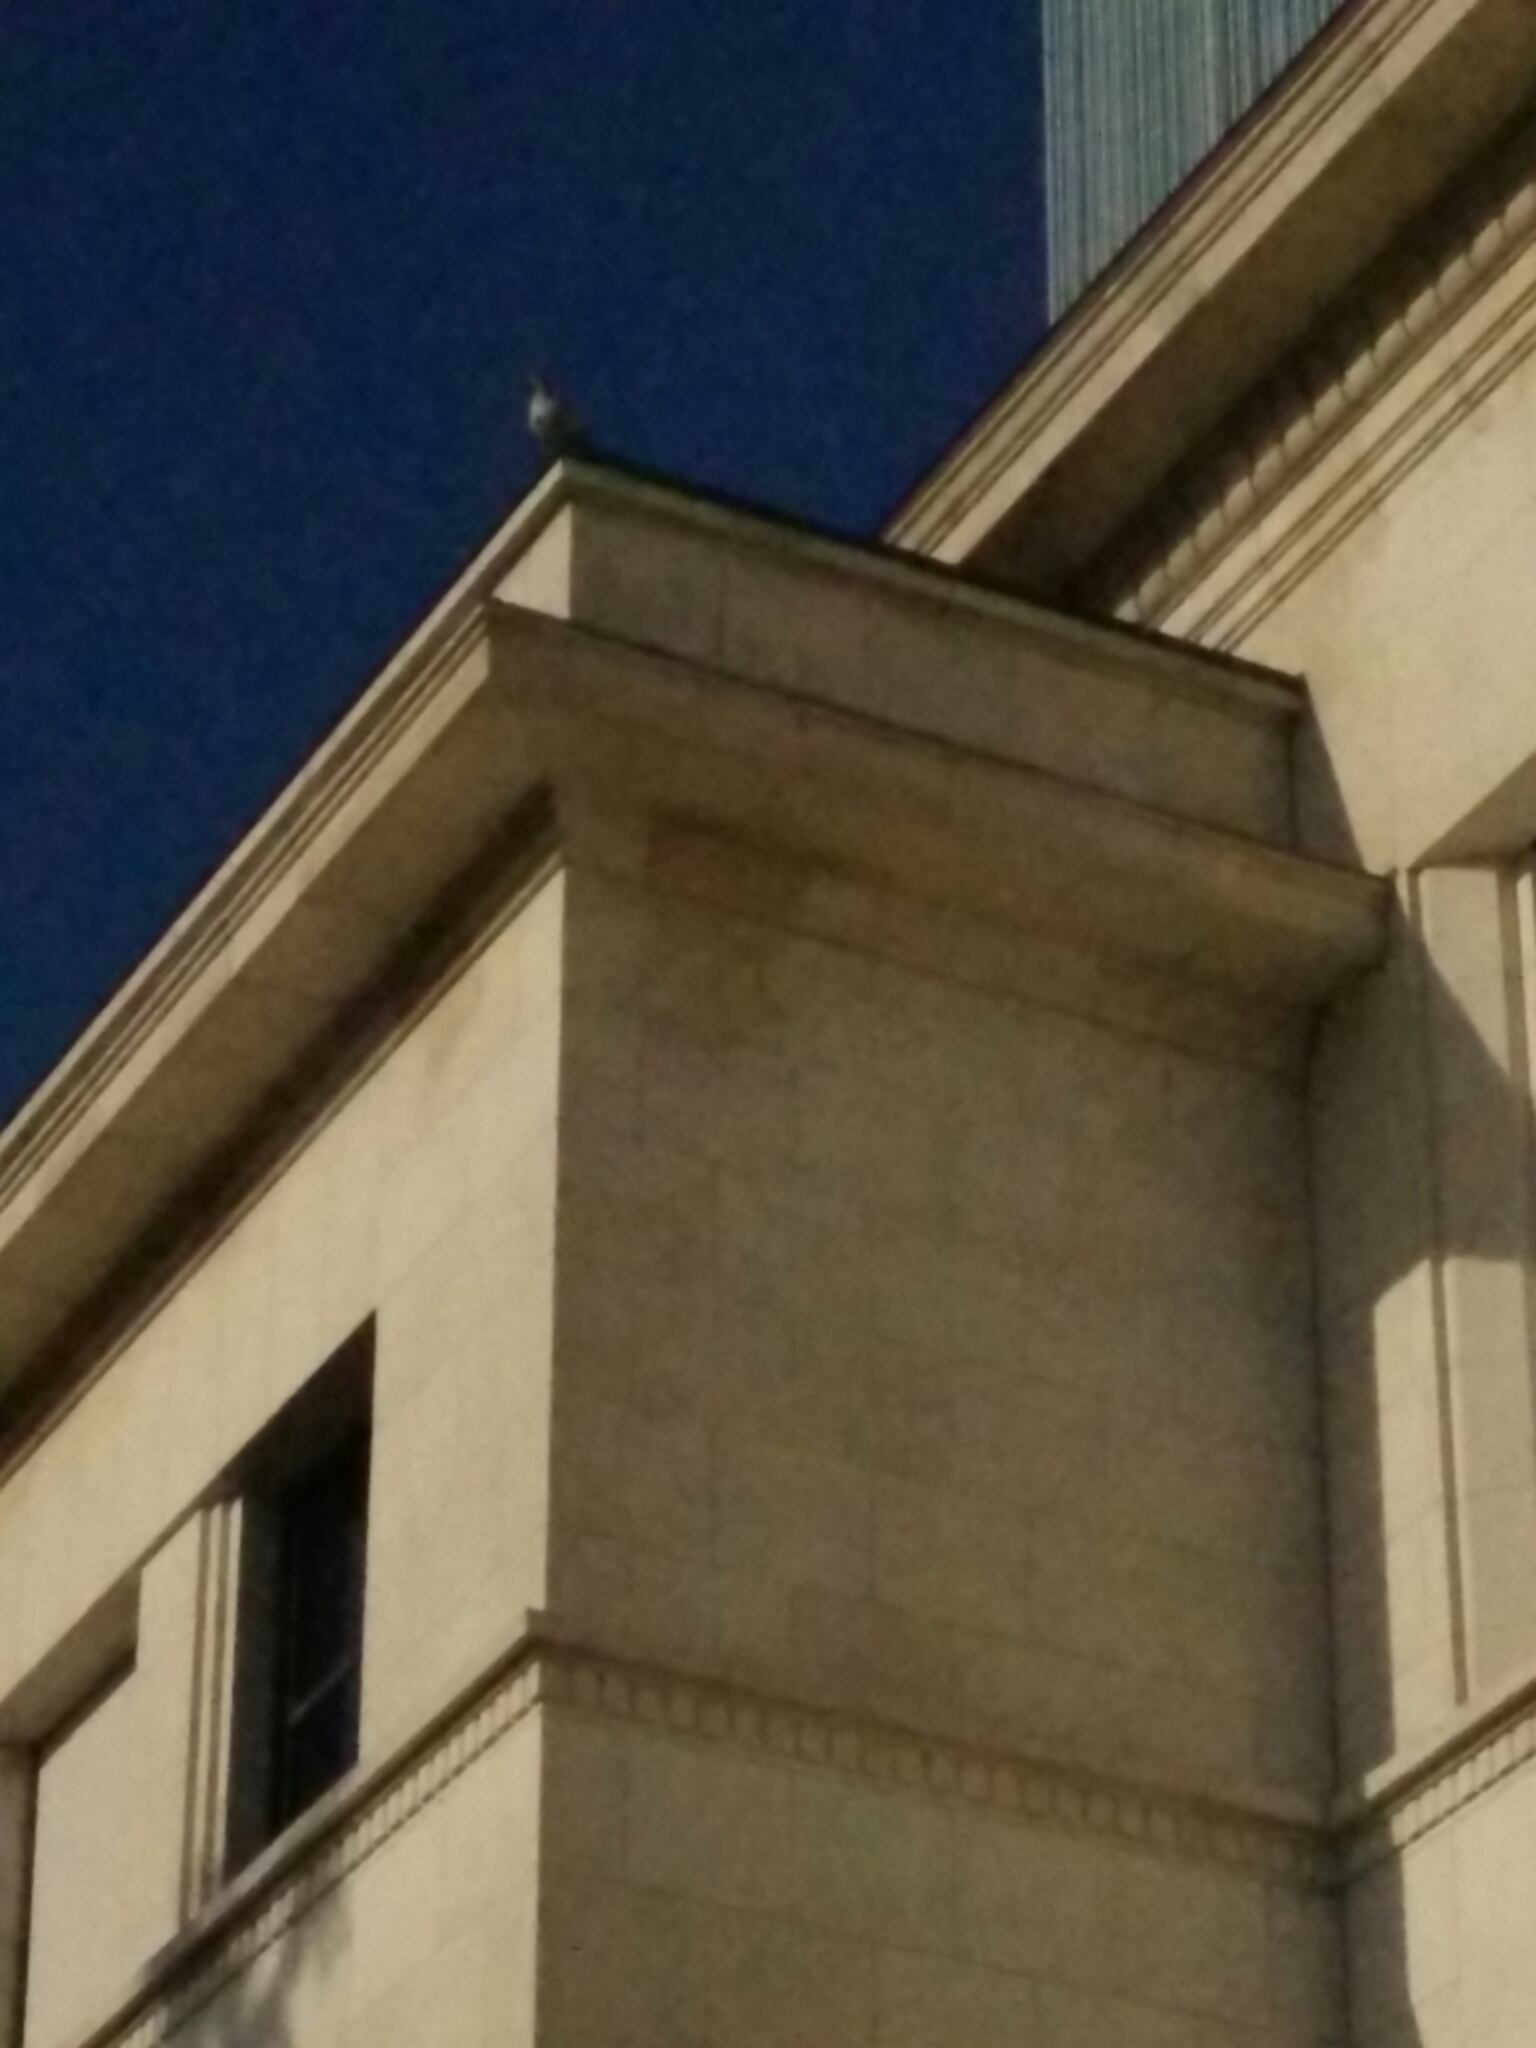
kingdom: Animalia
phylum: Chordata
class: Aves
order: Anseriformes
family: Anatidae
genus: Alopochen
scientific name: Alopochen aegyptiaca
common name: Egyptian goose
